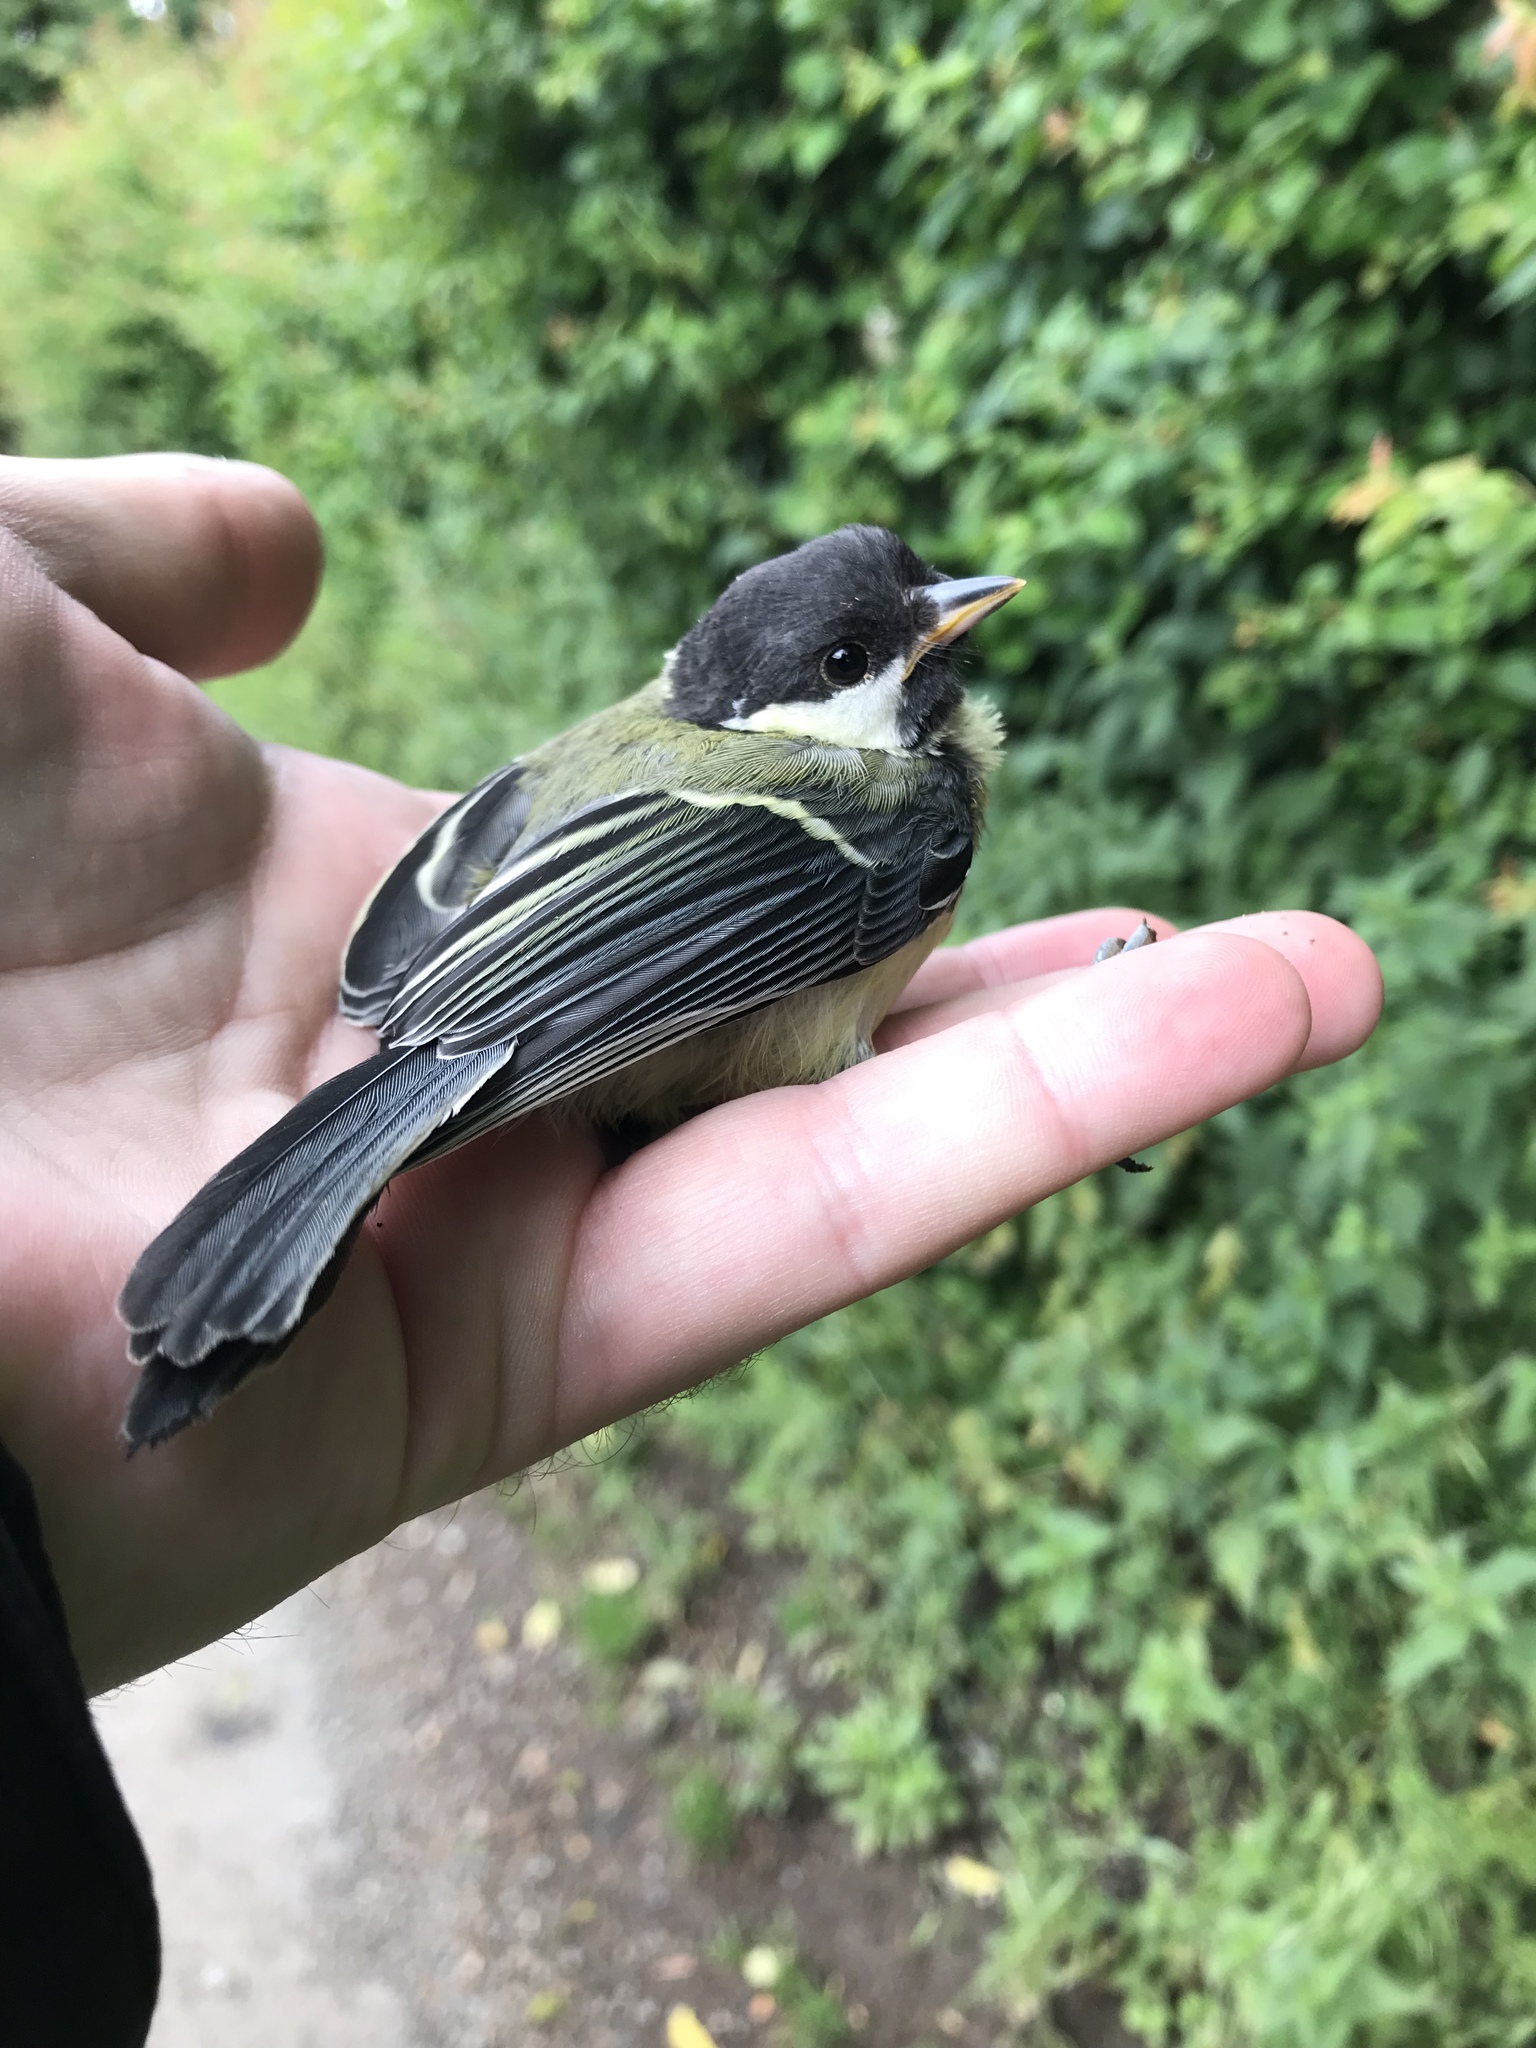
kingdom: Animalia
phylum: Chordata
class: Aves
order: Passeriformes
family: Paridae
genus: Parus
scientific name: Parus major
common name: Great tit
